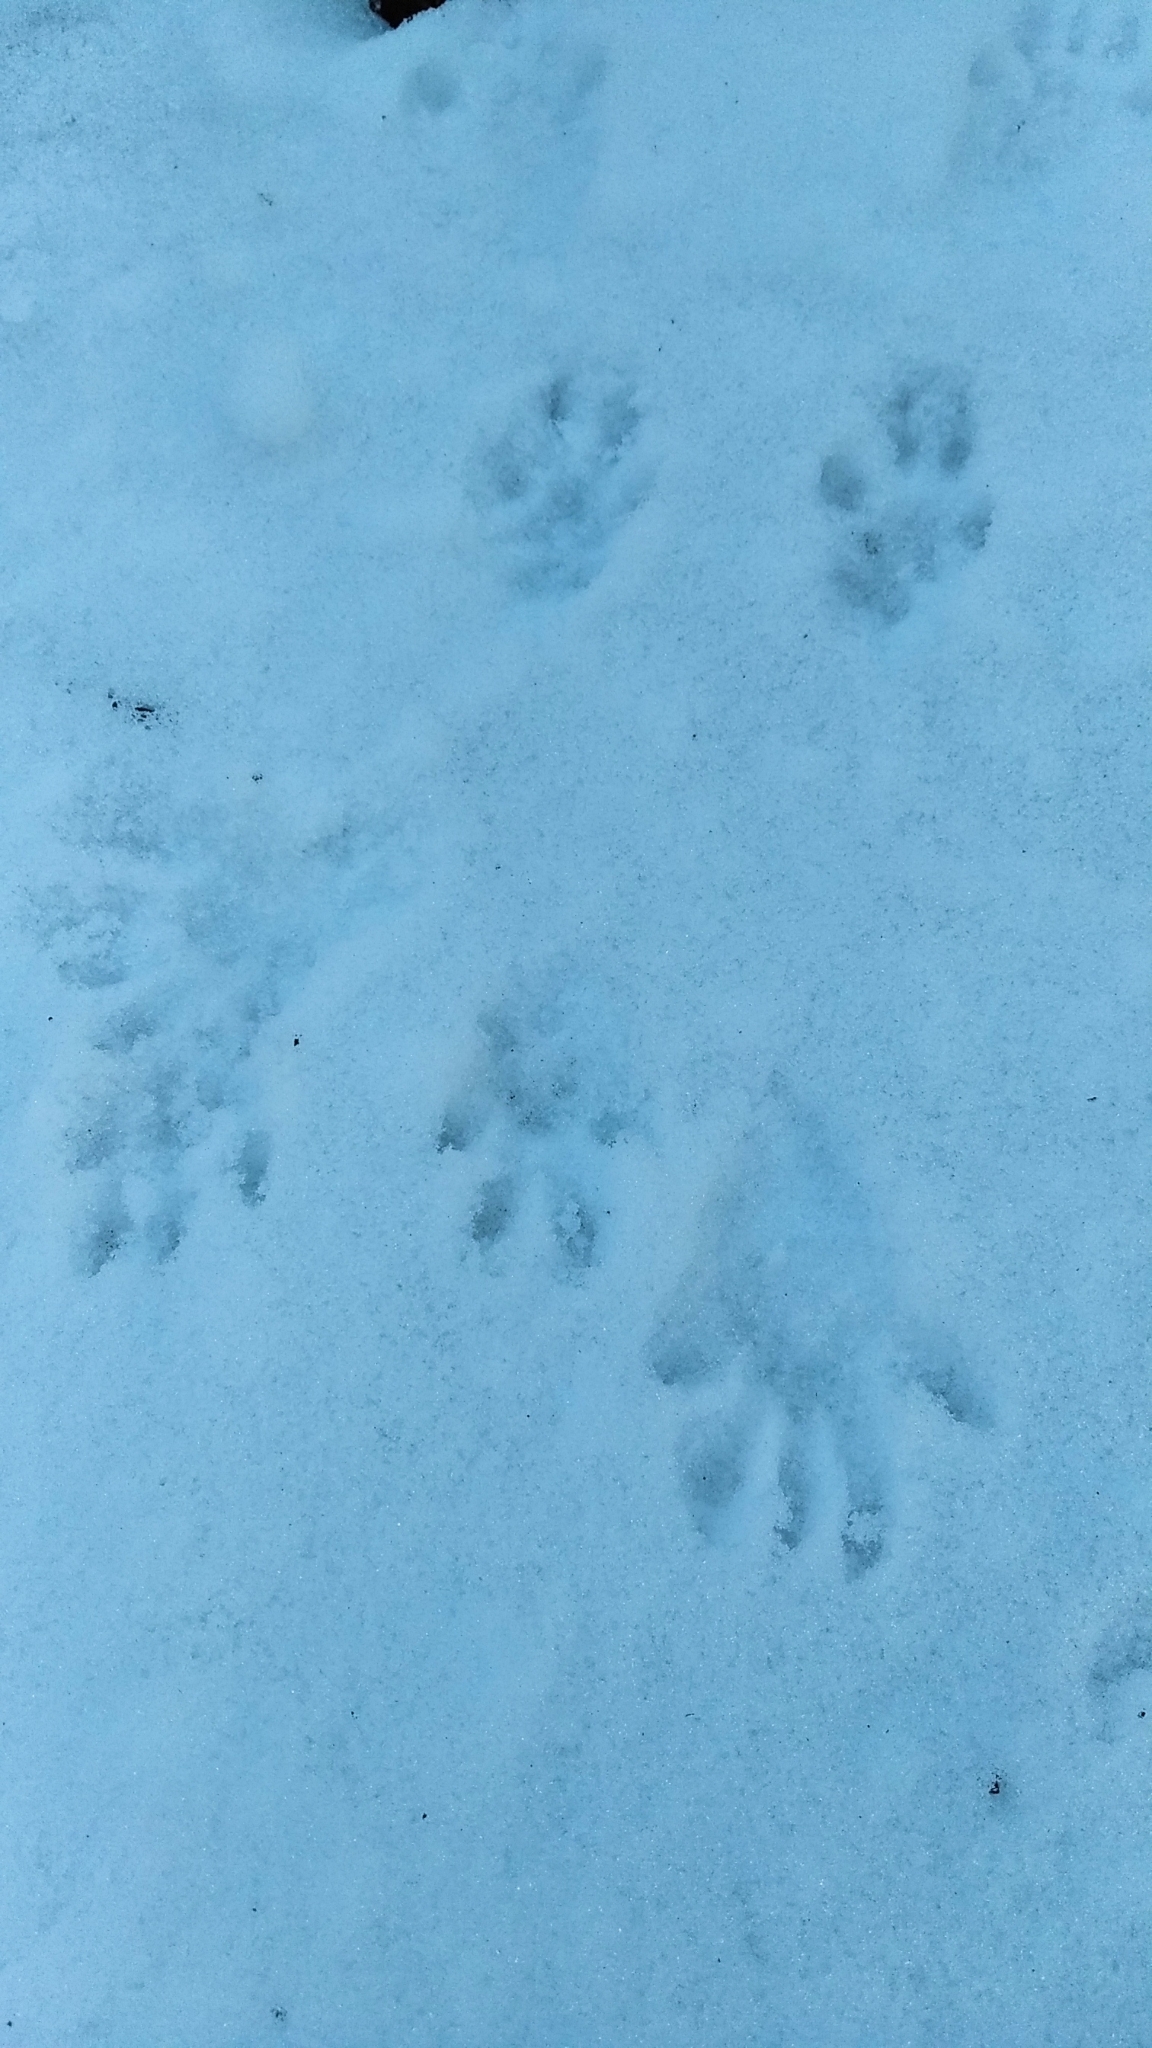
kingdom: Animalia
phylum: Chordata
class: Mammalia
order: Rodentia
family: Sciuridae
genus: Sciurus
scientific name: Sciurus vulgaris
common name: Eurasian red squirrel
